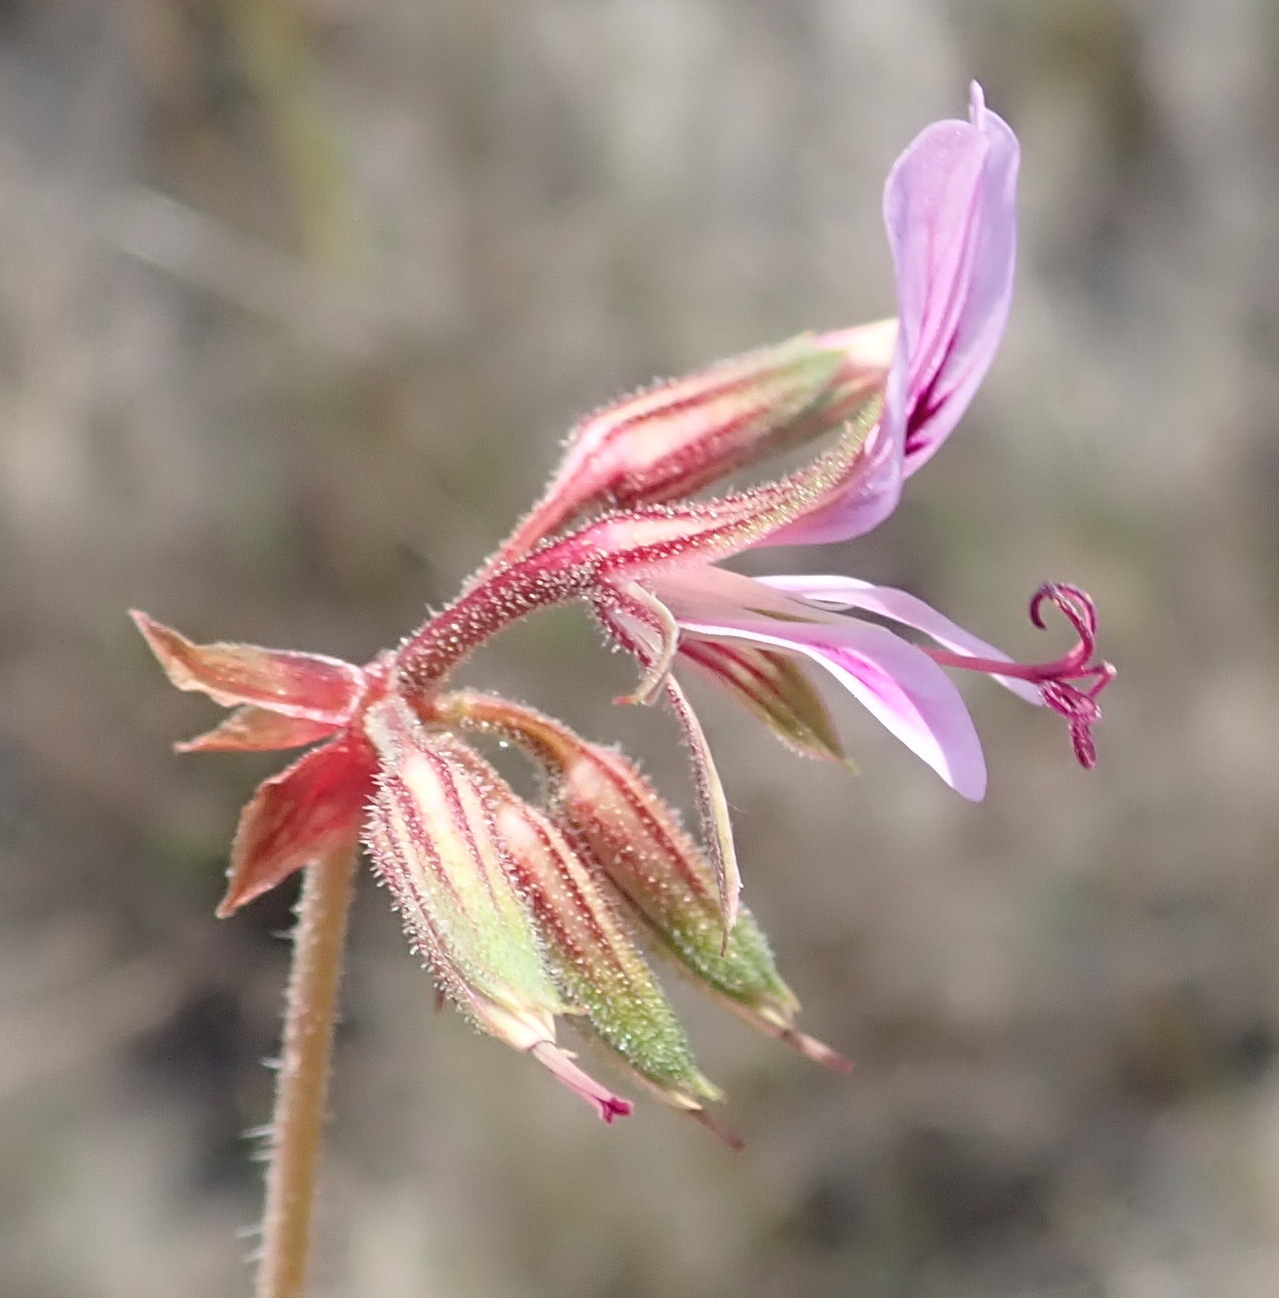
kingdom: Plantae
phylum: Tracheophyta
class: Magnoliopsida
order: Geraniales
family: Geraniaceae
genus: Pelargonium
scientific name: Pelargonium multicaule
